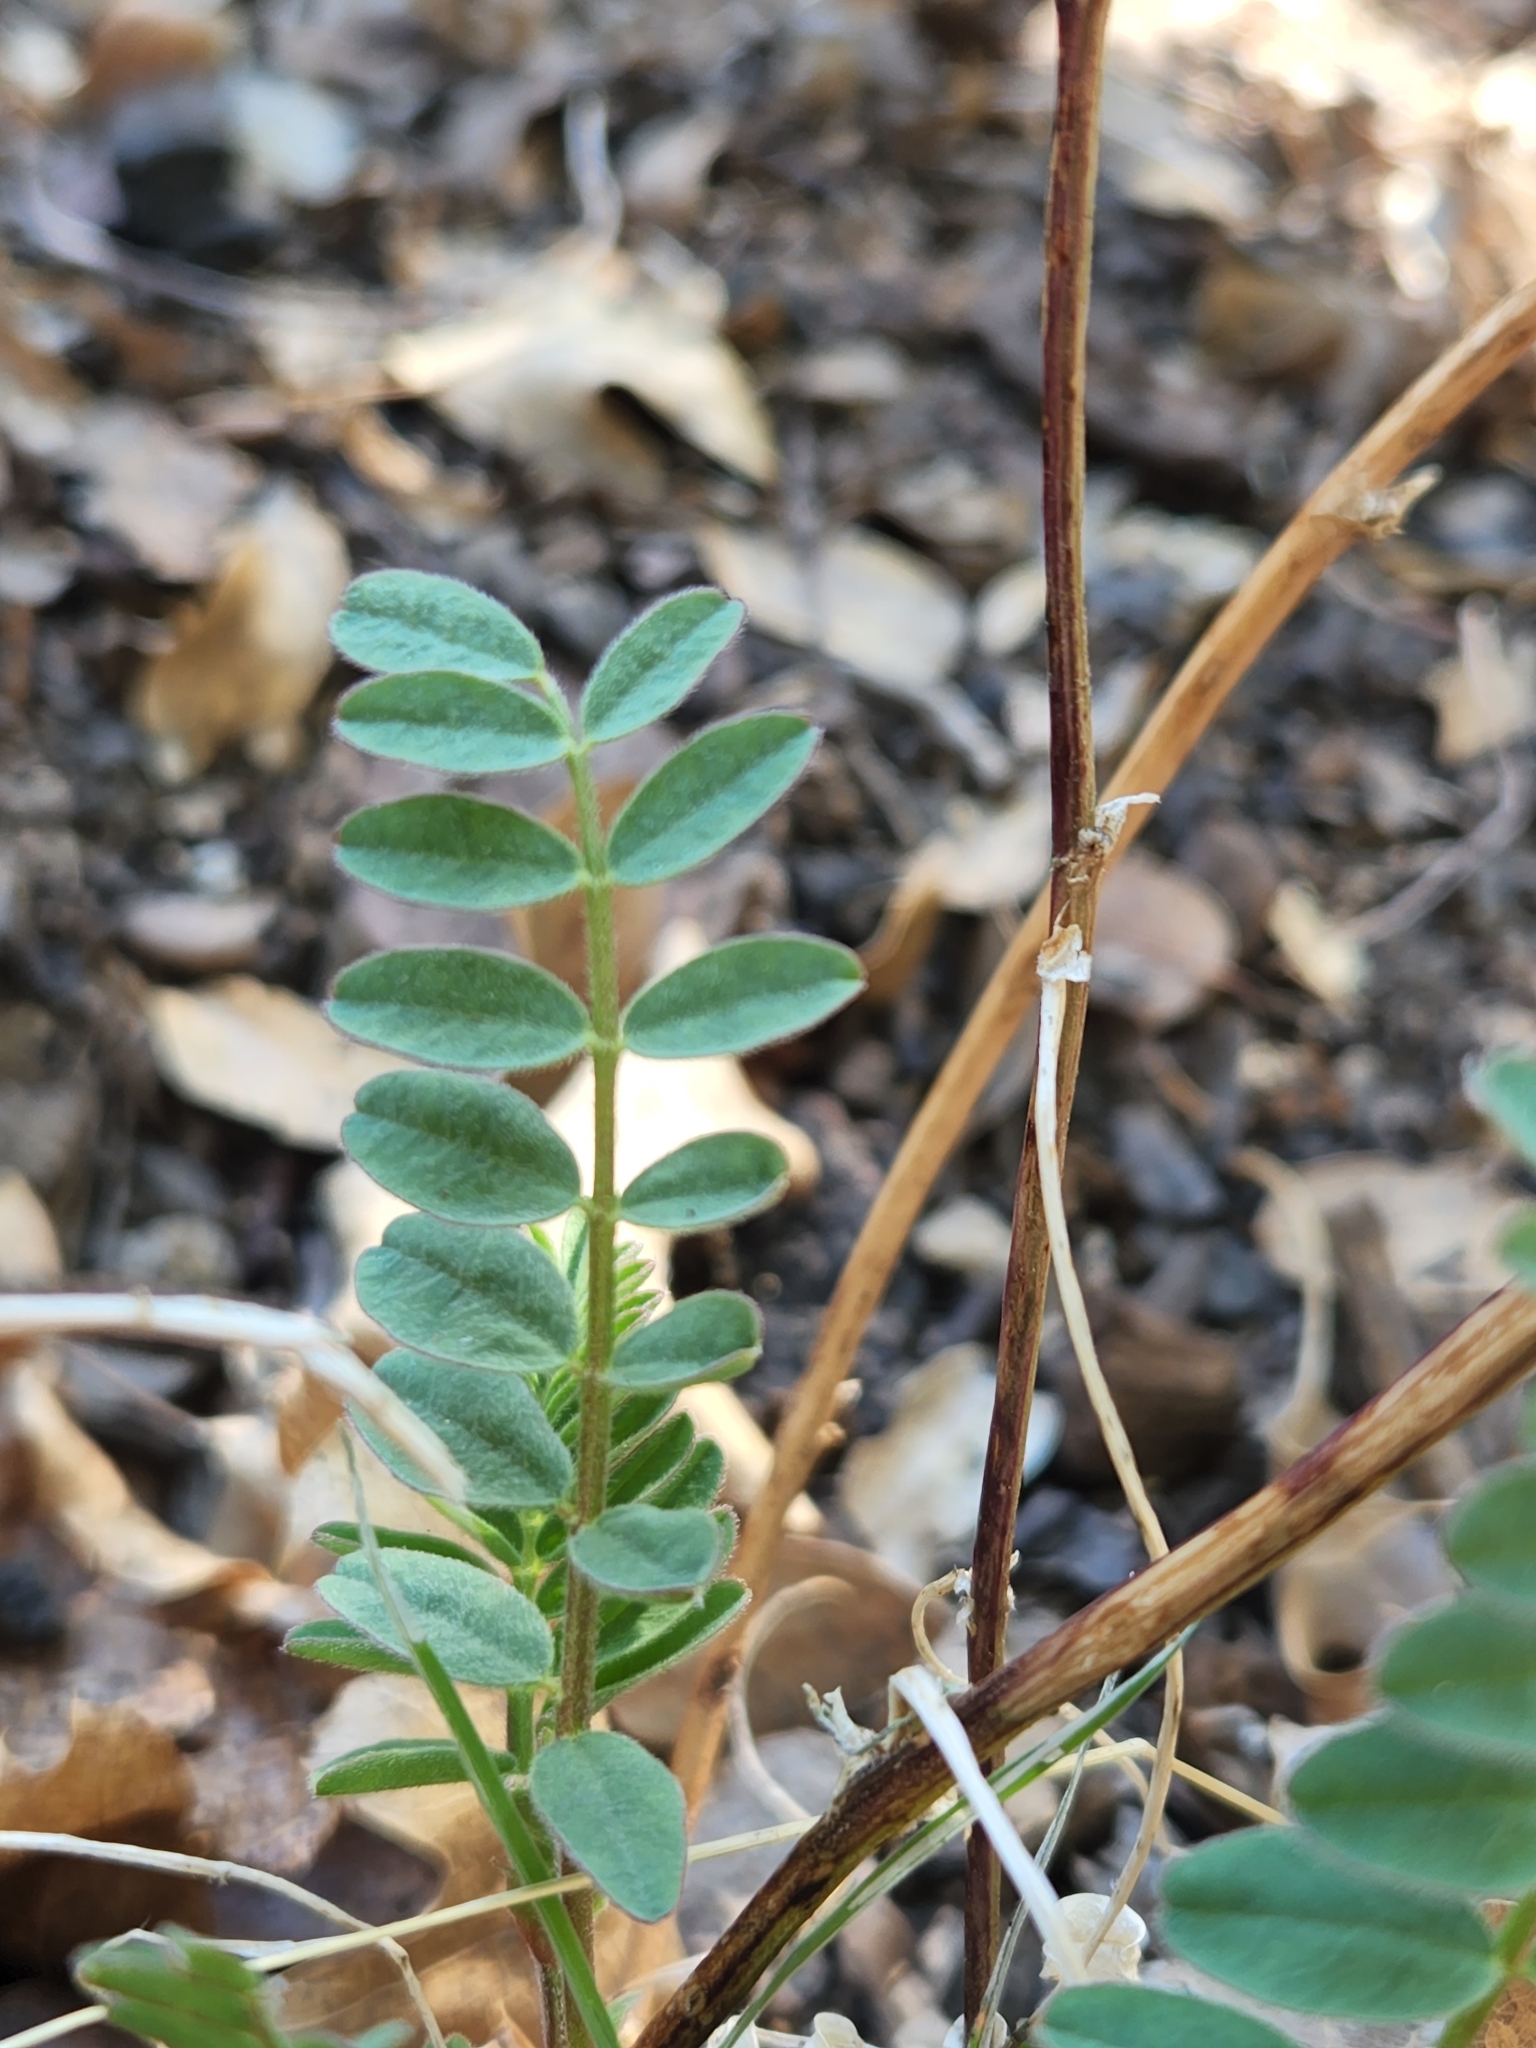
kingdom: Plantae
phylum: Tracheophyta
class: Magnoliopsida
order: Fabales
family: Fabaceae
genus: Astragalus
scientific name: Astragalus douglasii
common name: Jacumba milkvetch
